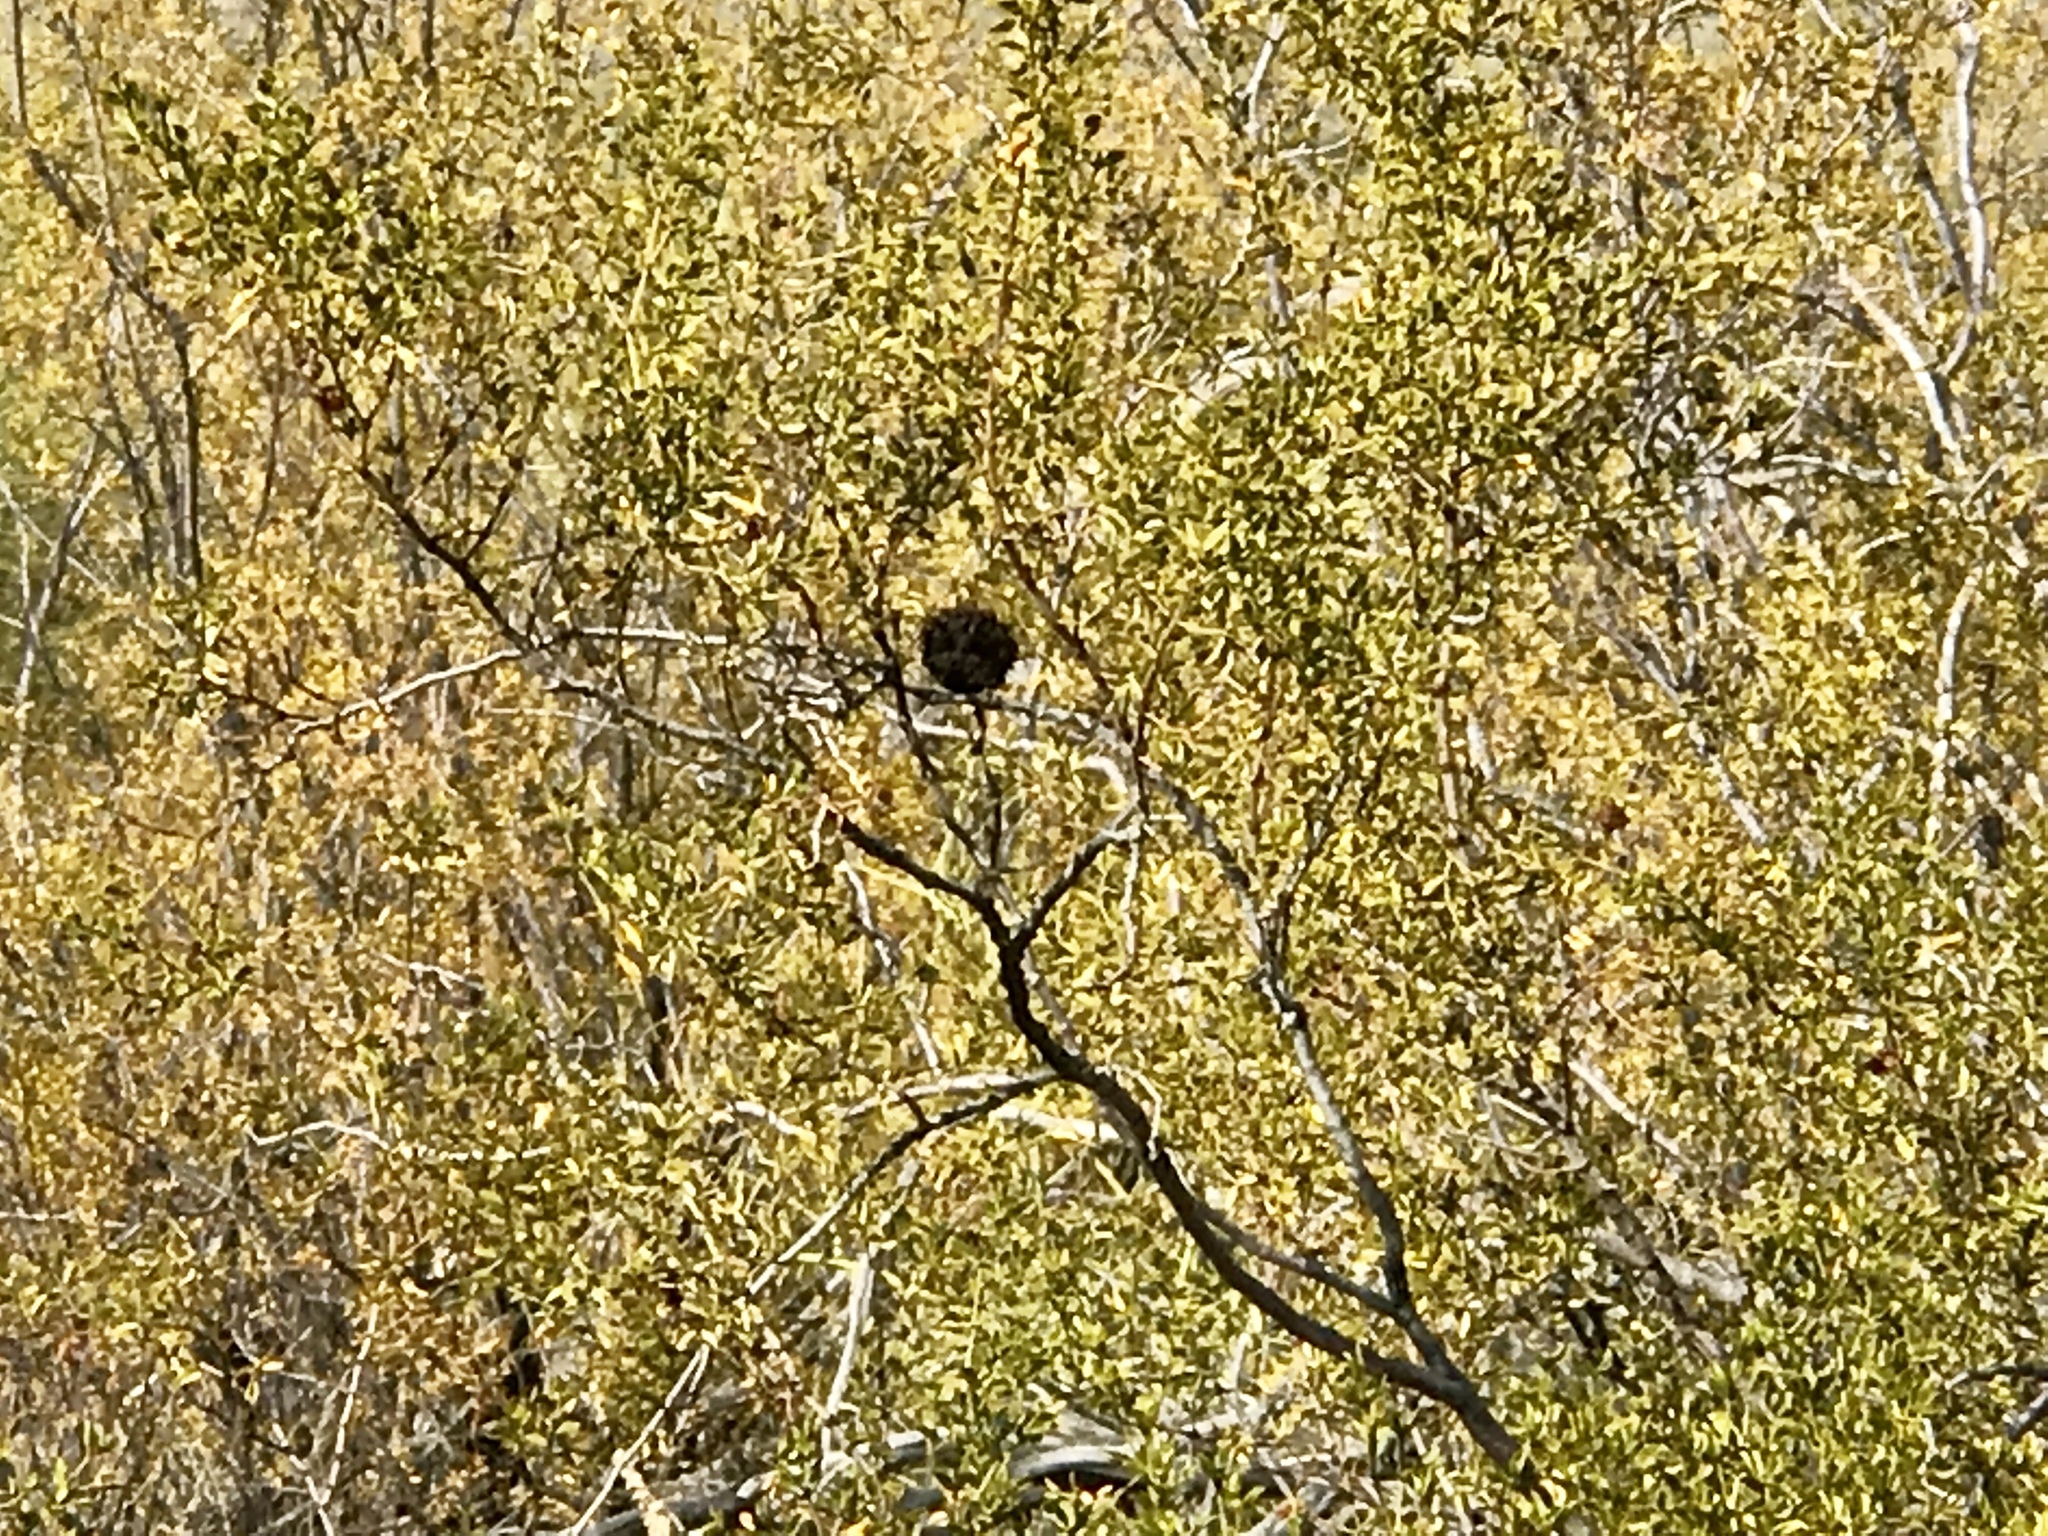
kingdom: Animalia
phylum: Arthropoda
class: Insecta
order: Diptera
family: Cecidomyiidae
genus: Asphondylia
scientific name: Asphondylia auripila
